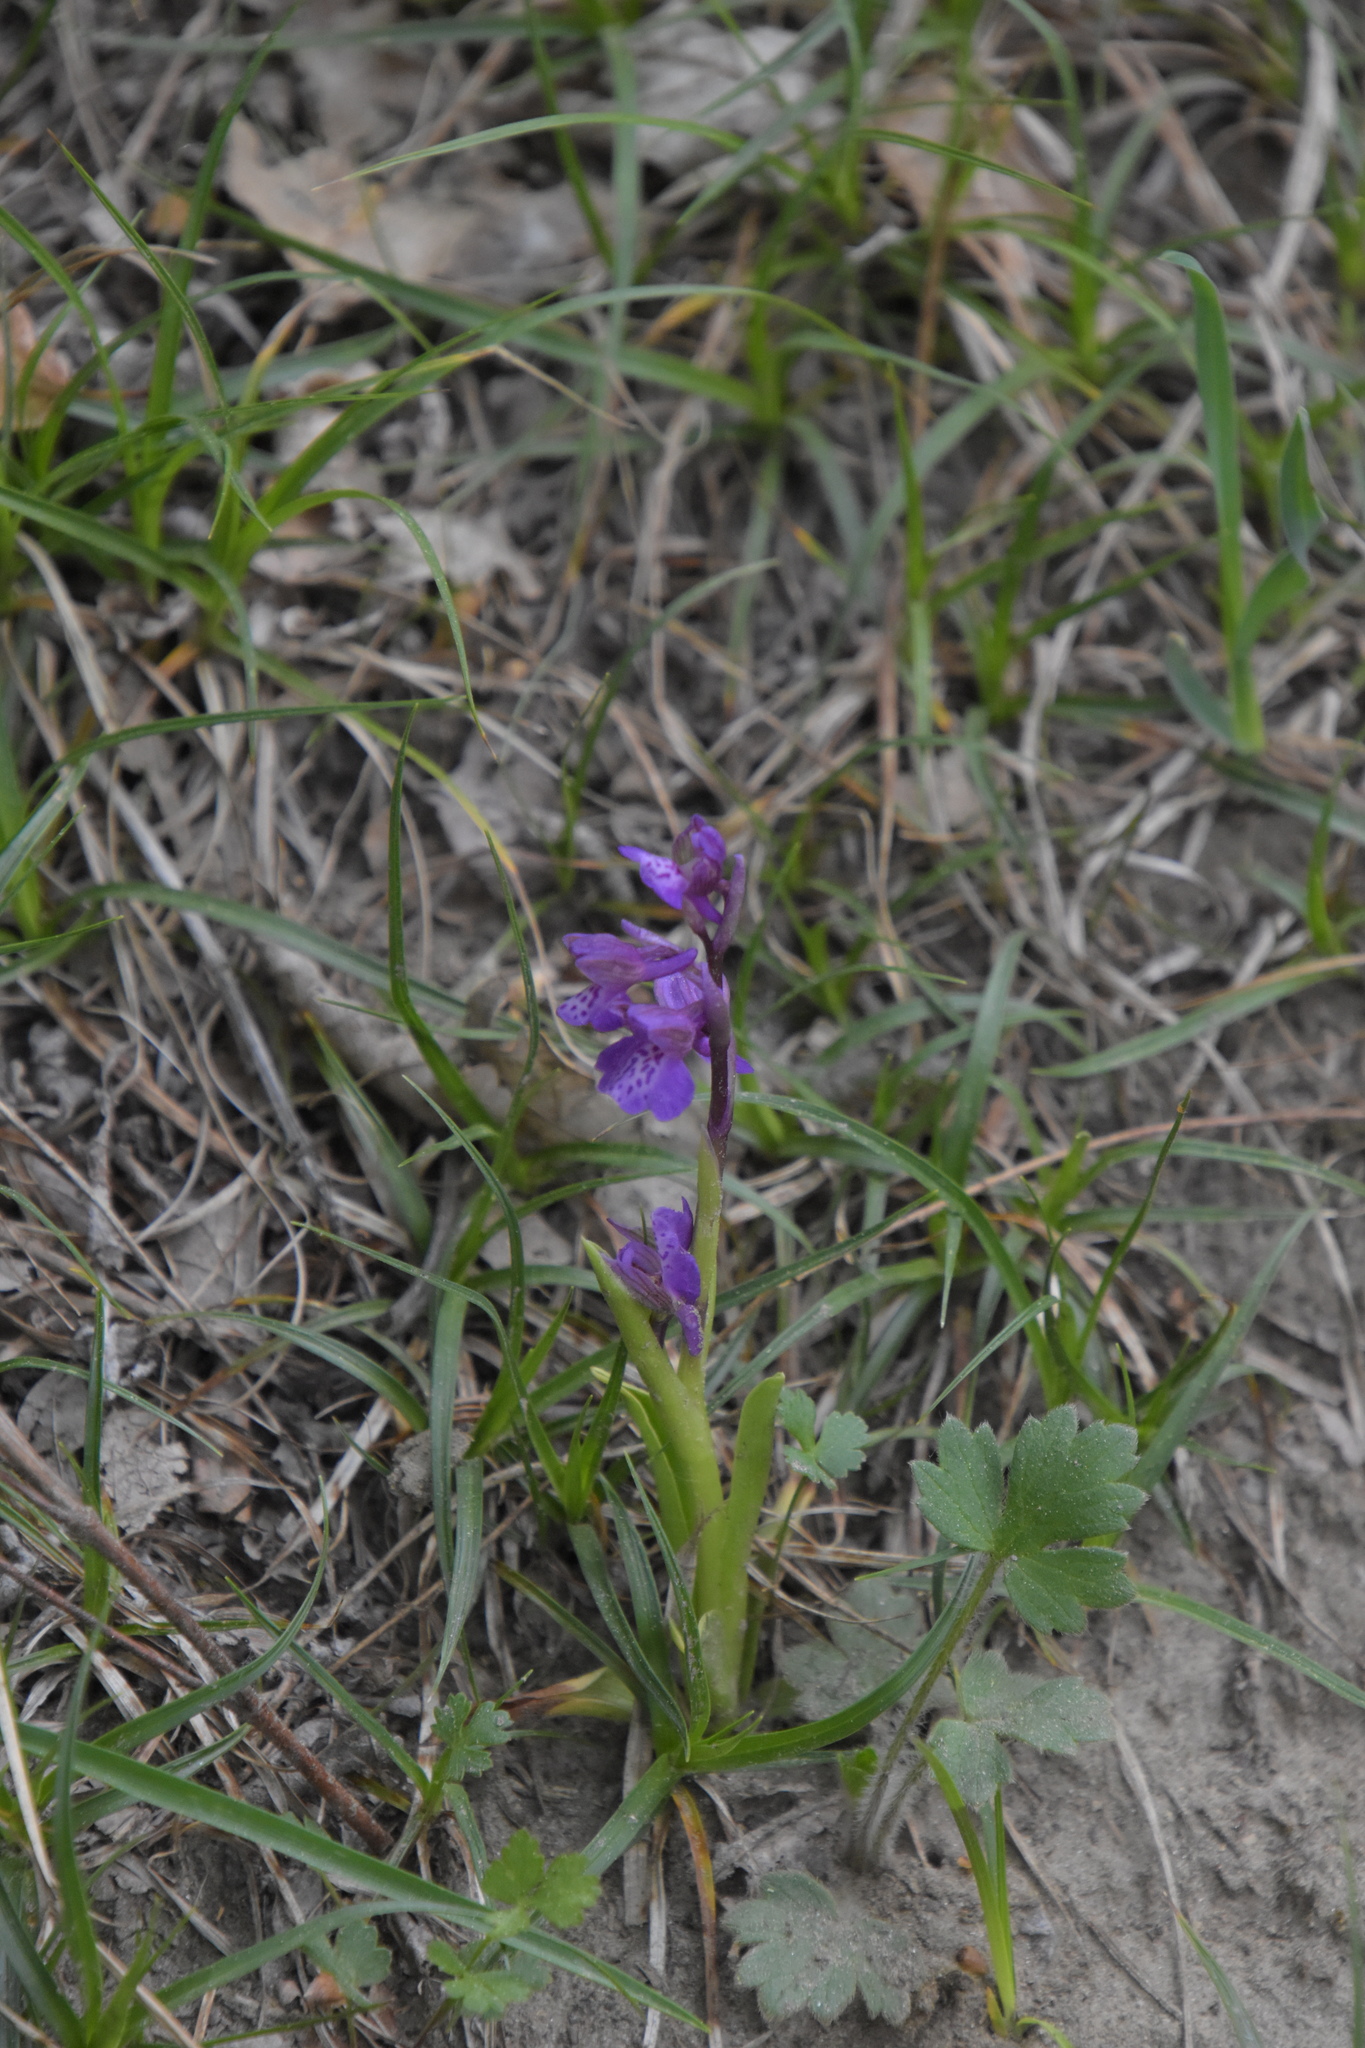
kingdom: Plantae
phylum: Tracheophyta
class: Liliopsida
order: Asparagales
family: Orchidaceae
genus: Anacamptis
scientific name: Anacamptis morio
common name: Green-winged orchid
